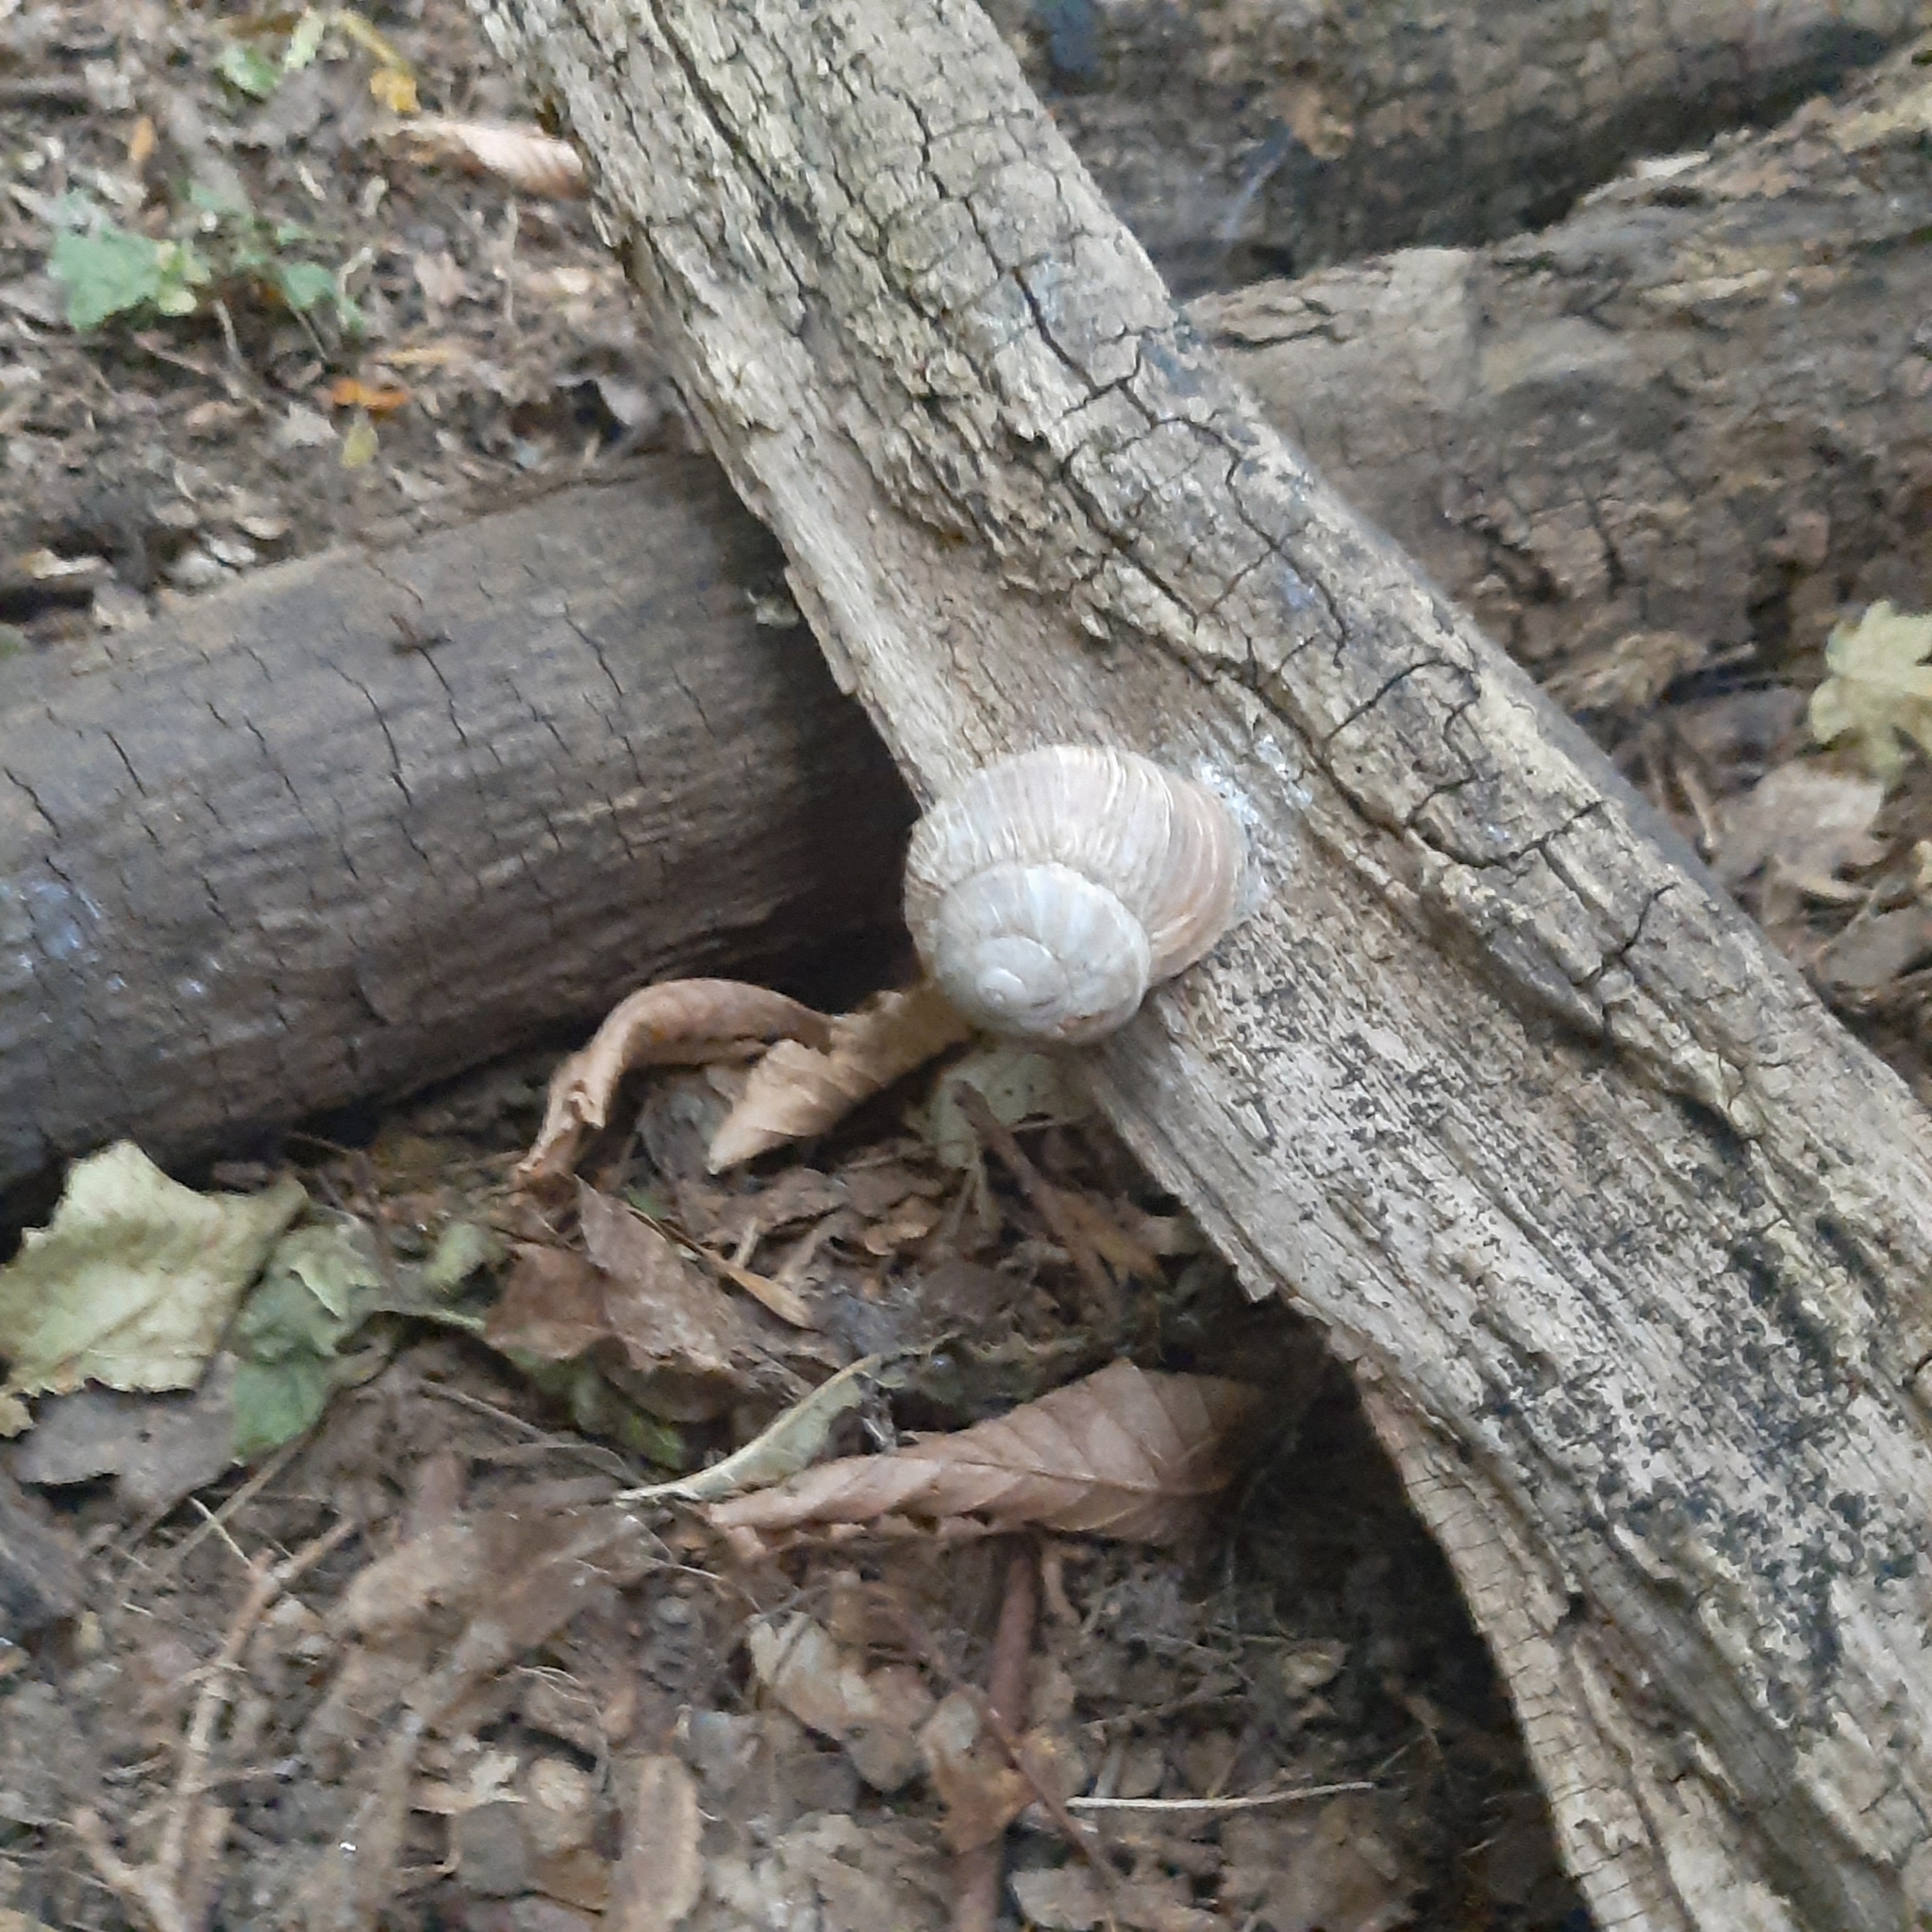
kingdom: Animalia
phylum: Mollusca
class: Gastropoda
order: Stylommatophora
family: Helicidae
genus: Helix
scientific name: Helix pomatia
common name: Roman snail
